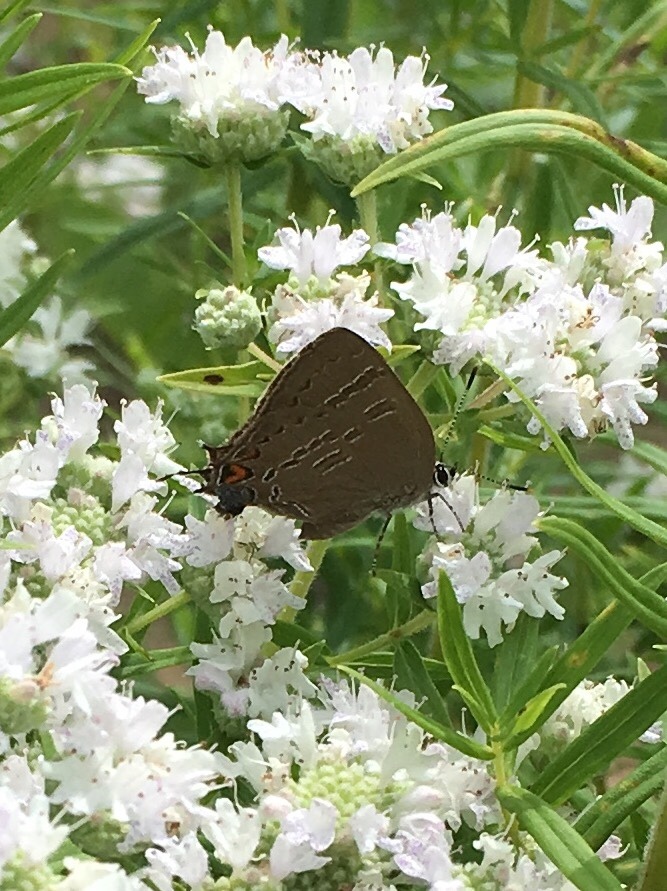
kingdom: Animalia
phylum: Arthropoda
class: Insecta
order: Lepidoptera
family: Lycaenidae
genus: Satyrium
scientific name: Satyrium calanus
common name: Banded hairstreak
